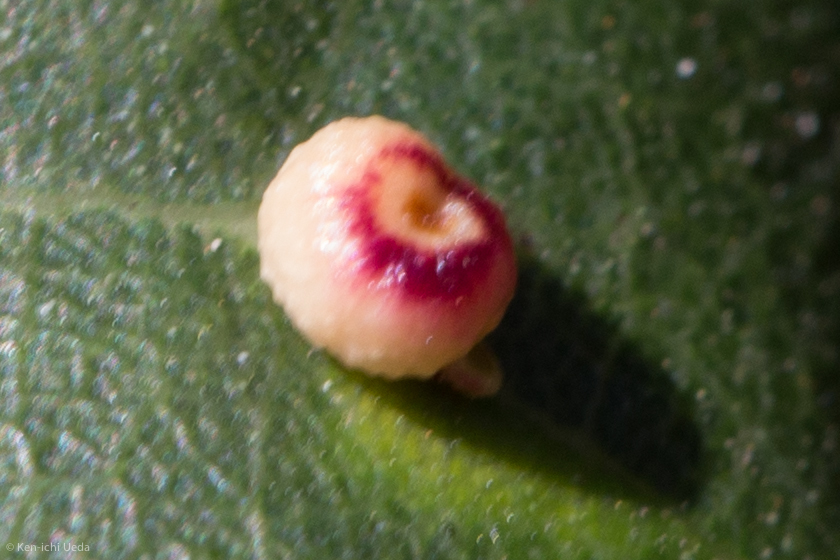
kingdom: Animalia
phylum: Arthropoda
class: Insecta
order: Hymenoptera
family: Cynipidae
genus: Dryocosmus
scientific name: Dryocosmus
